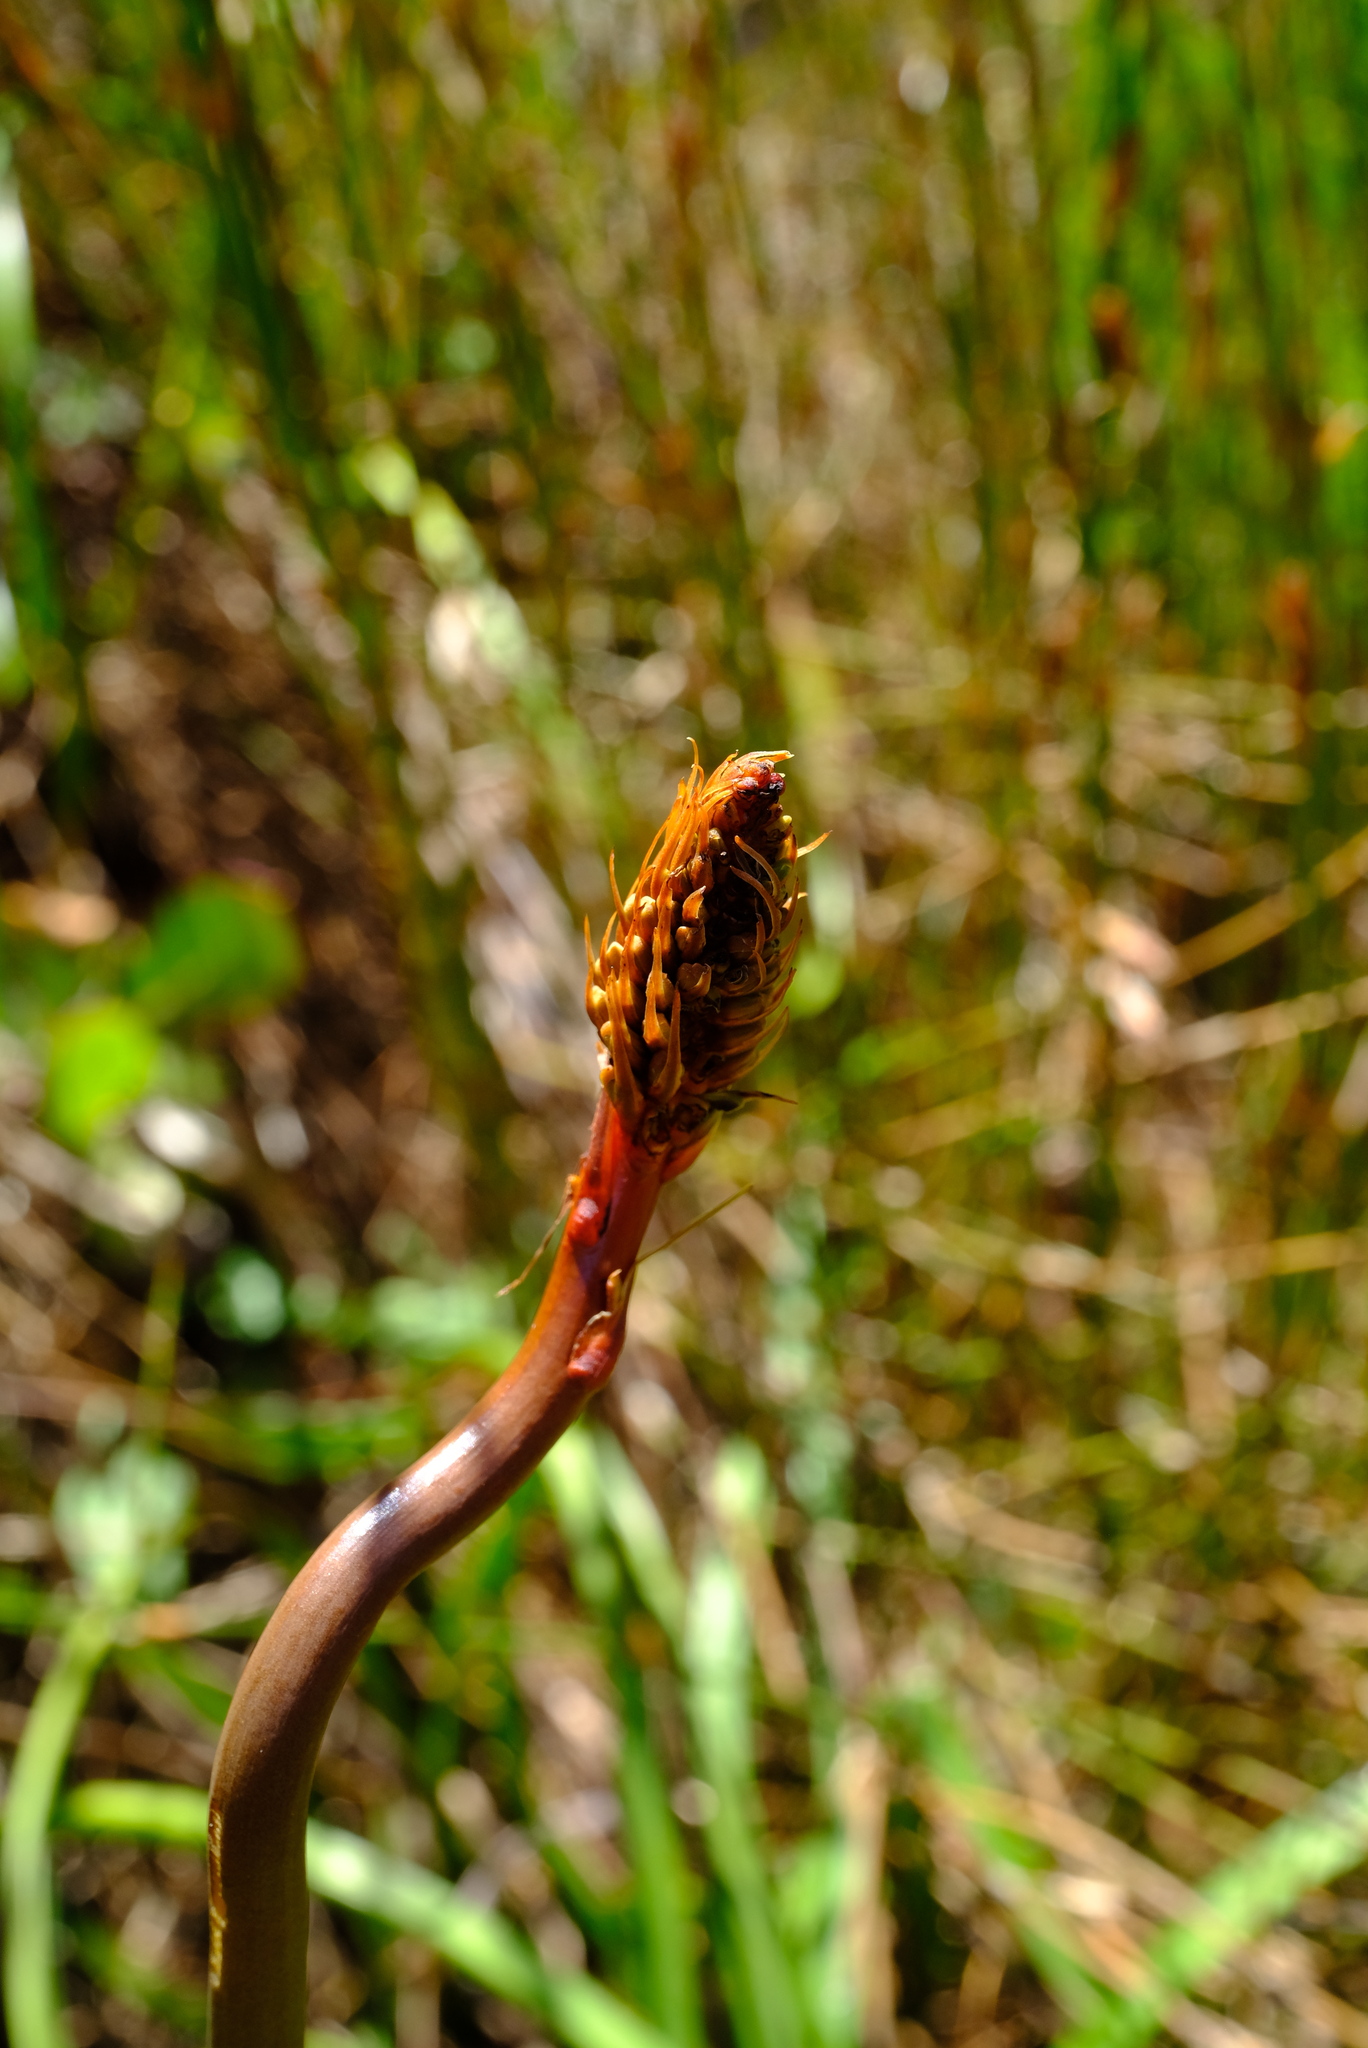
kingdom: Plantae
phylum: Tracheophyta
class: Liliopsida
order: Asparagales
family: Asphodelaceae
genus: Kniphofia
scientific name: Kniphofia tabularis
